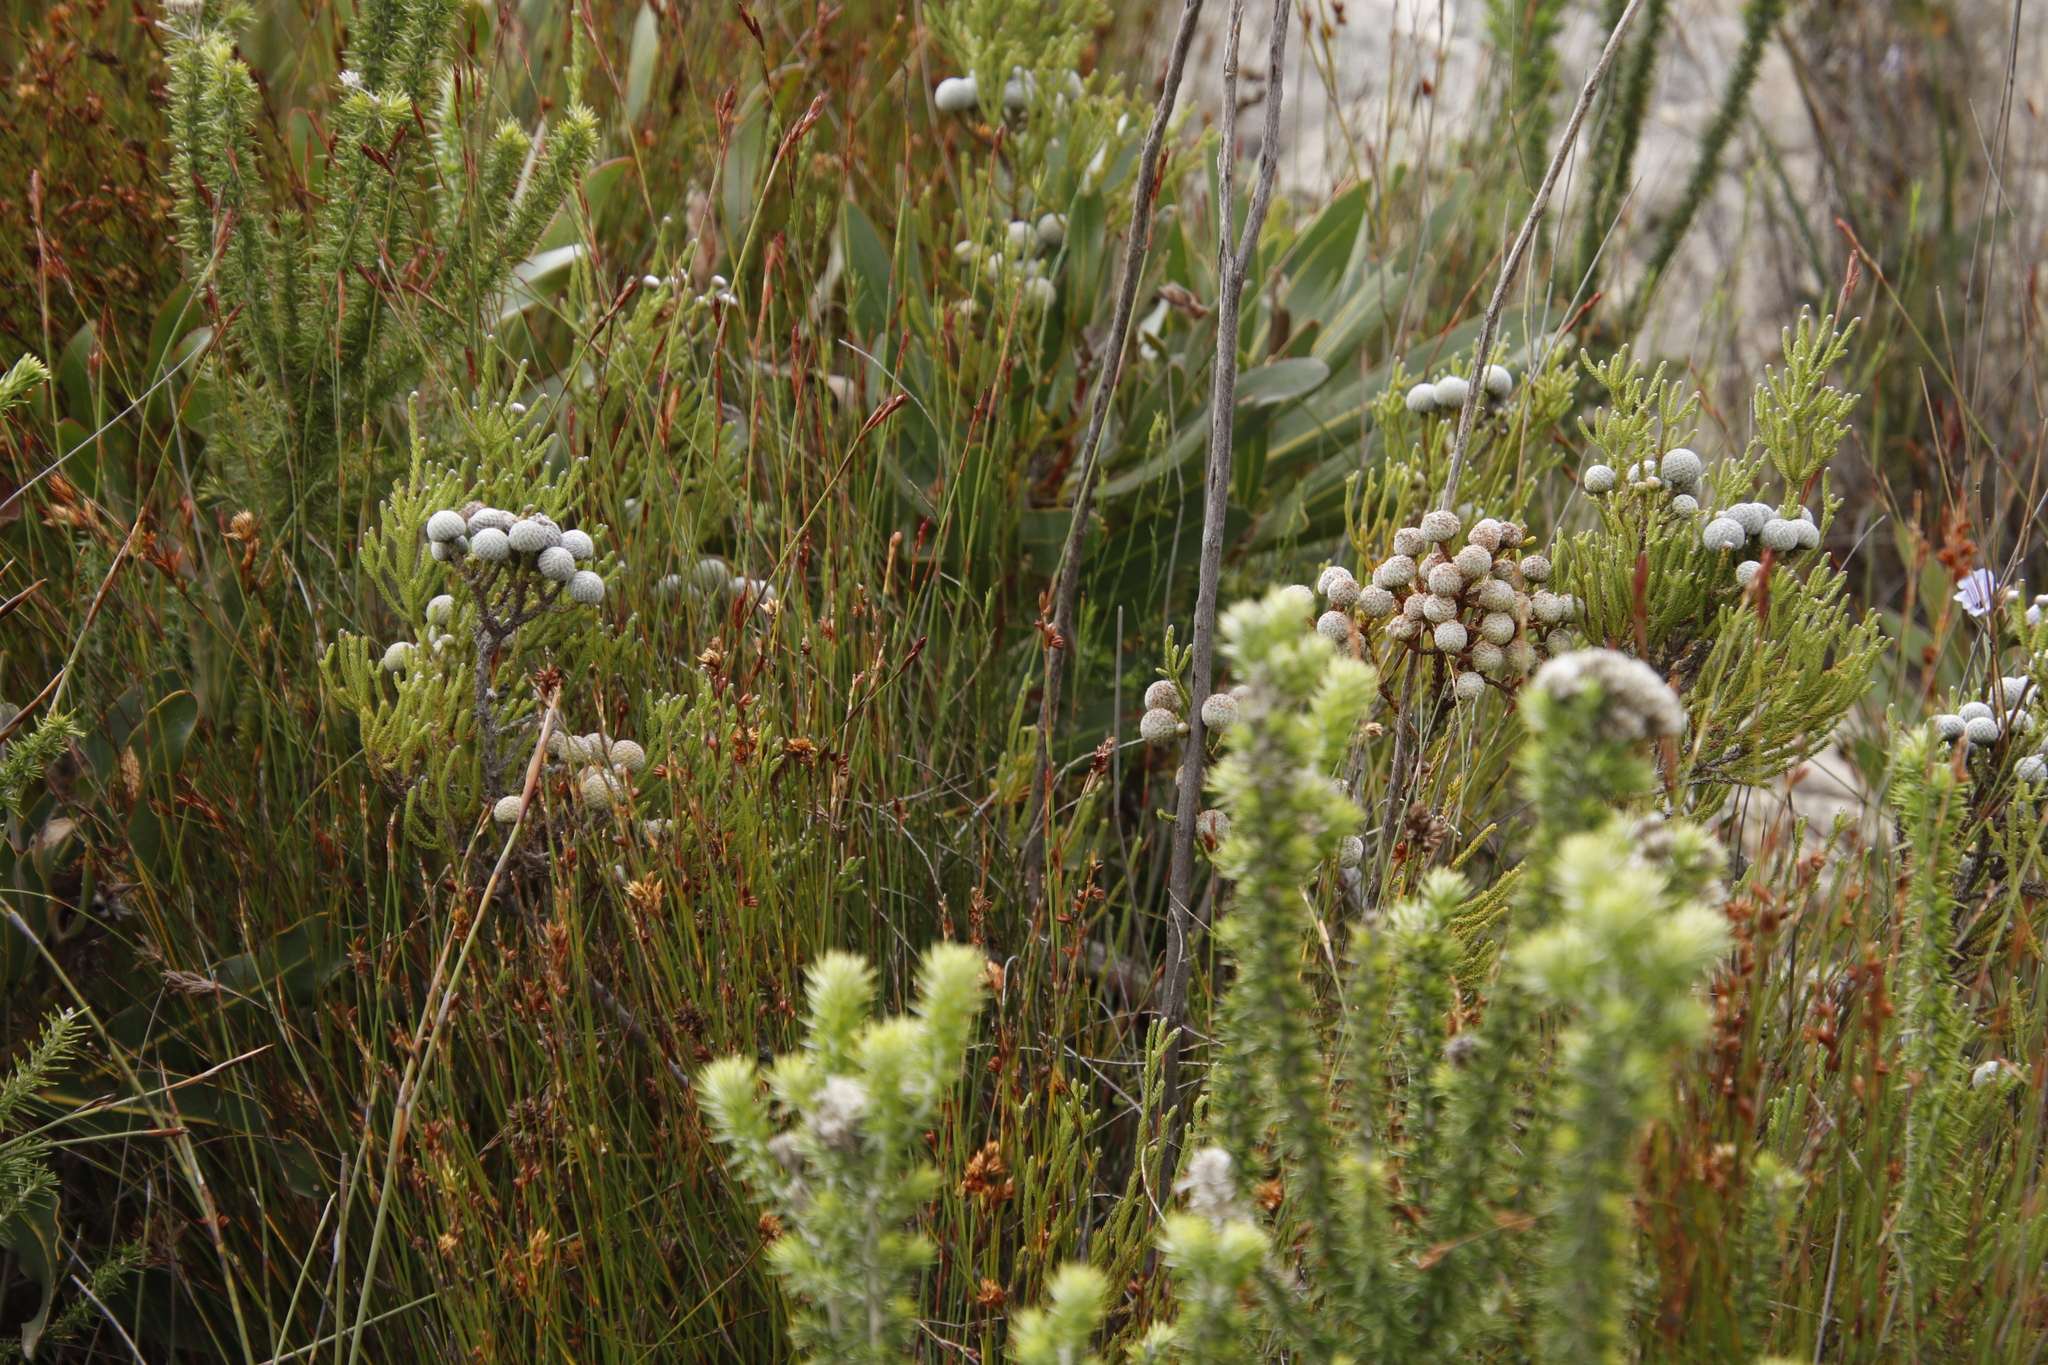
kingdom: Plantae
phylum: Tracheophyta
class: Magnoliopsida
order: Bruniales
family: Bruniaceae
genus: Brunia
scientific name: Brunia noduliflora
